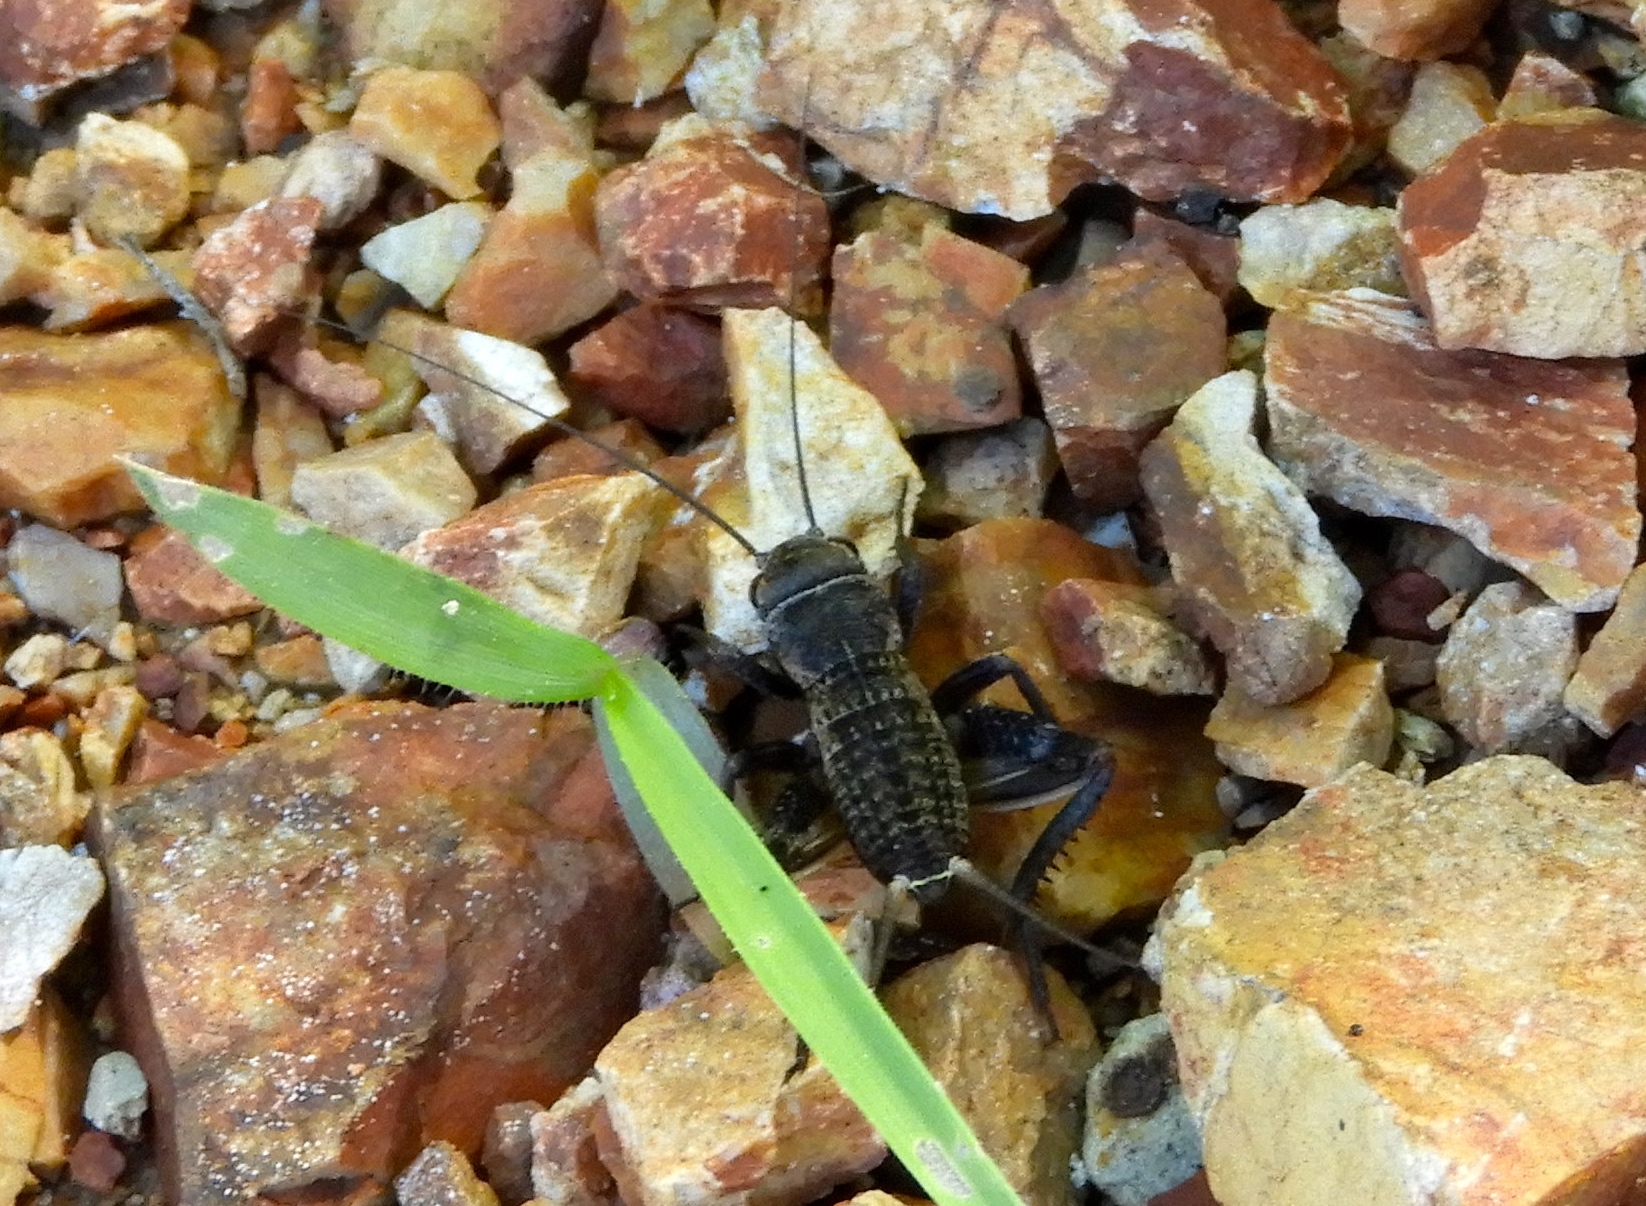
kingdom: Animalia
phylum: Arthropoda
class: Insecta
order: Orthoptera
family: Gryllidae
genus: Gryllus
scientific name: Gryllus
